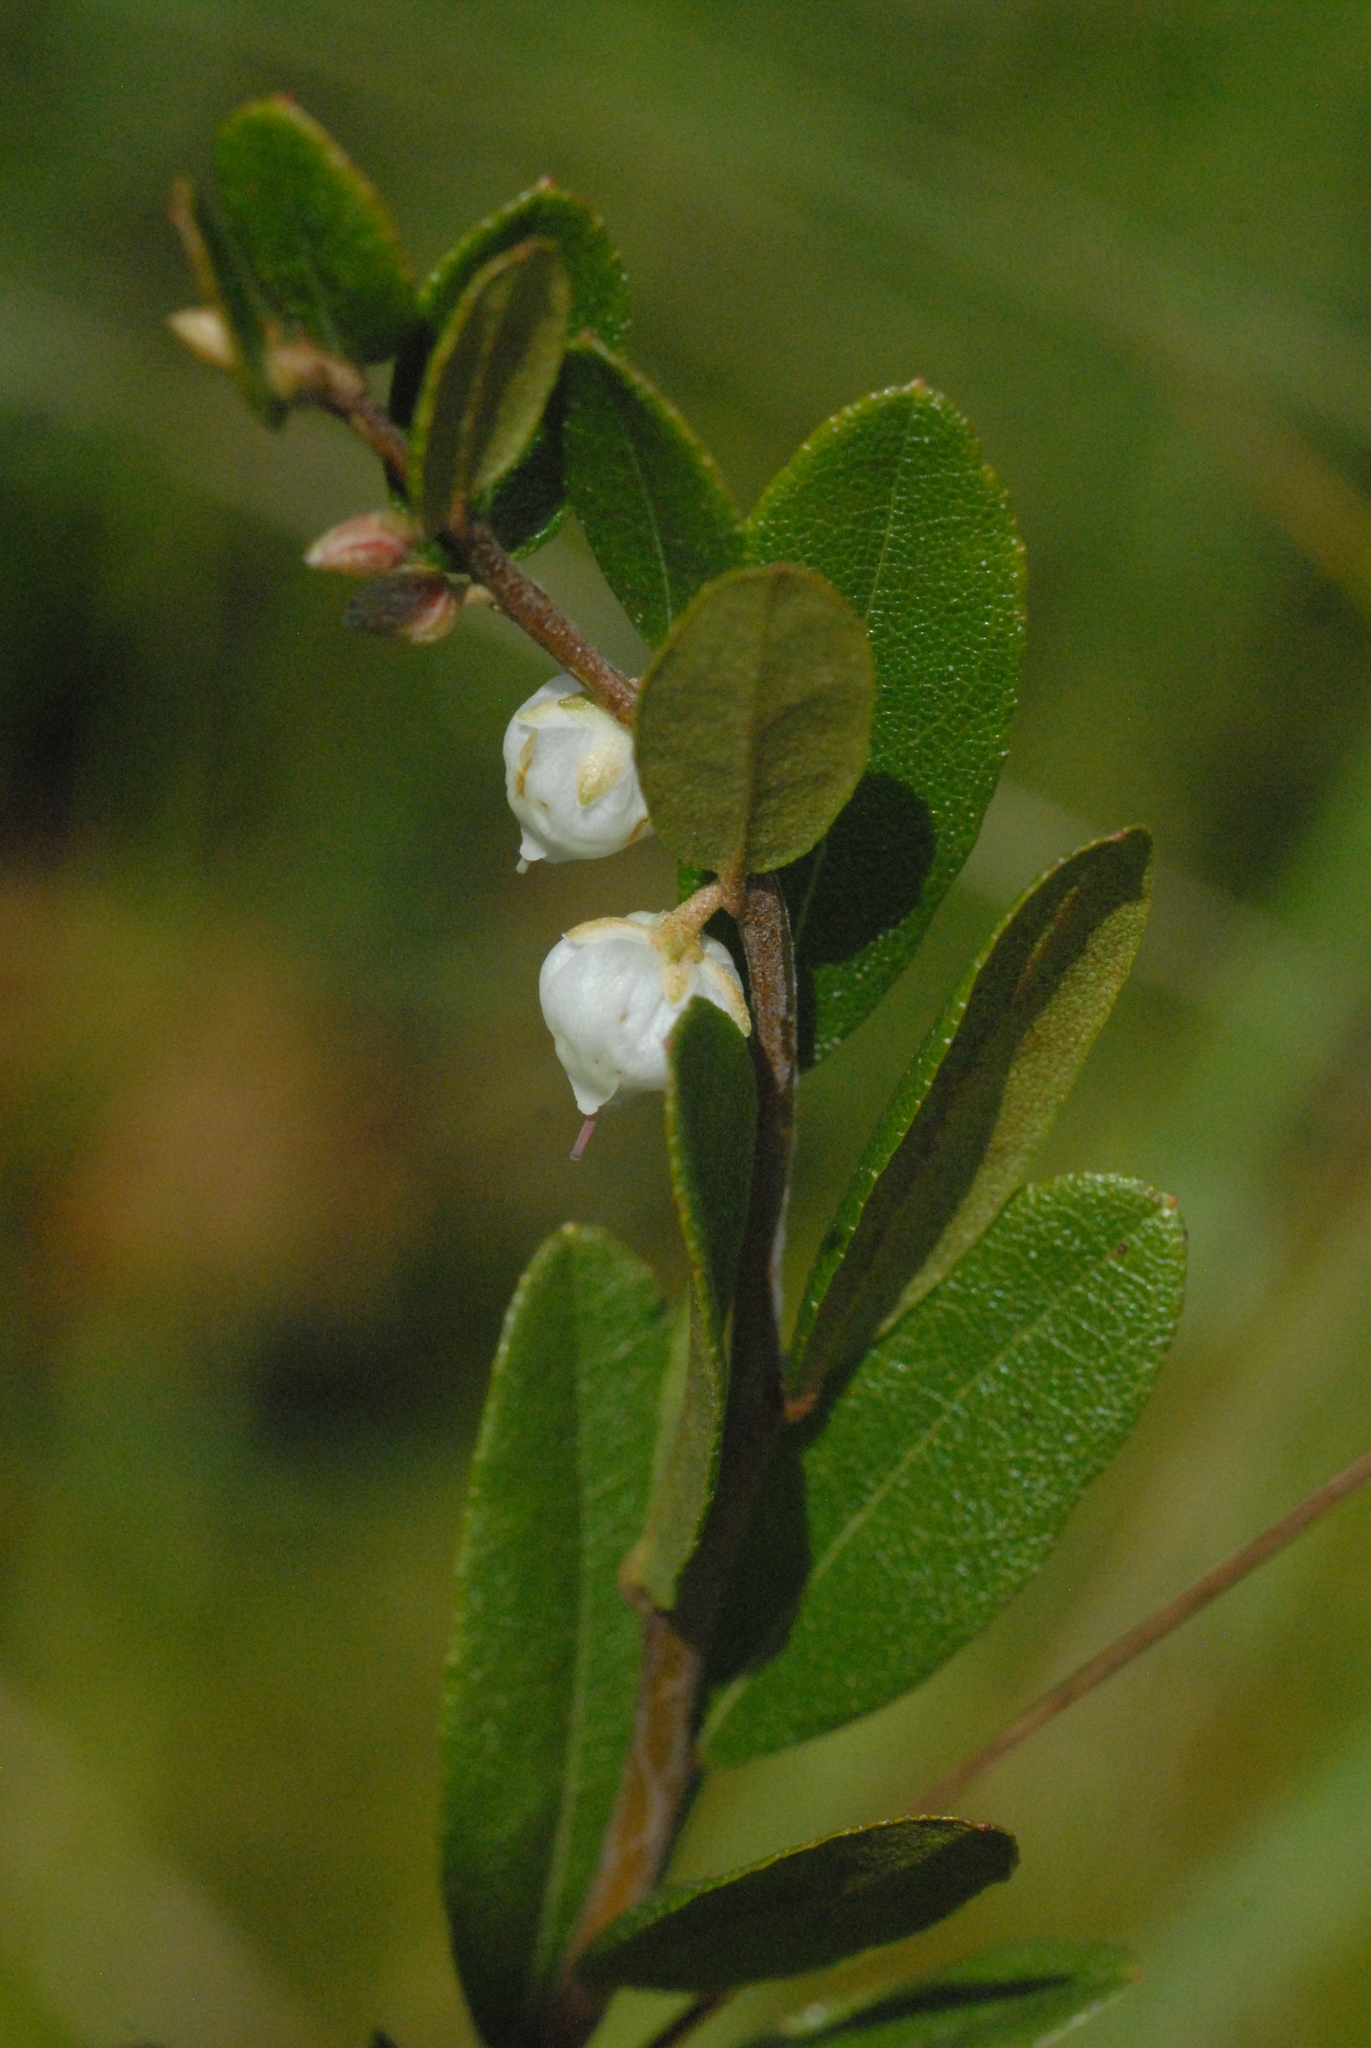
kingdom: Plantae
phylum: Tracheophyta
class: Magnoliopsida
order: Ericales
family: Ericaceae
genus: Chamaedaphne
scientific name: Chamaedaphne calyculata
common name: Leatherleaf
